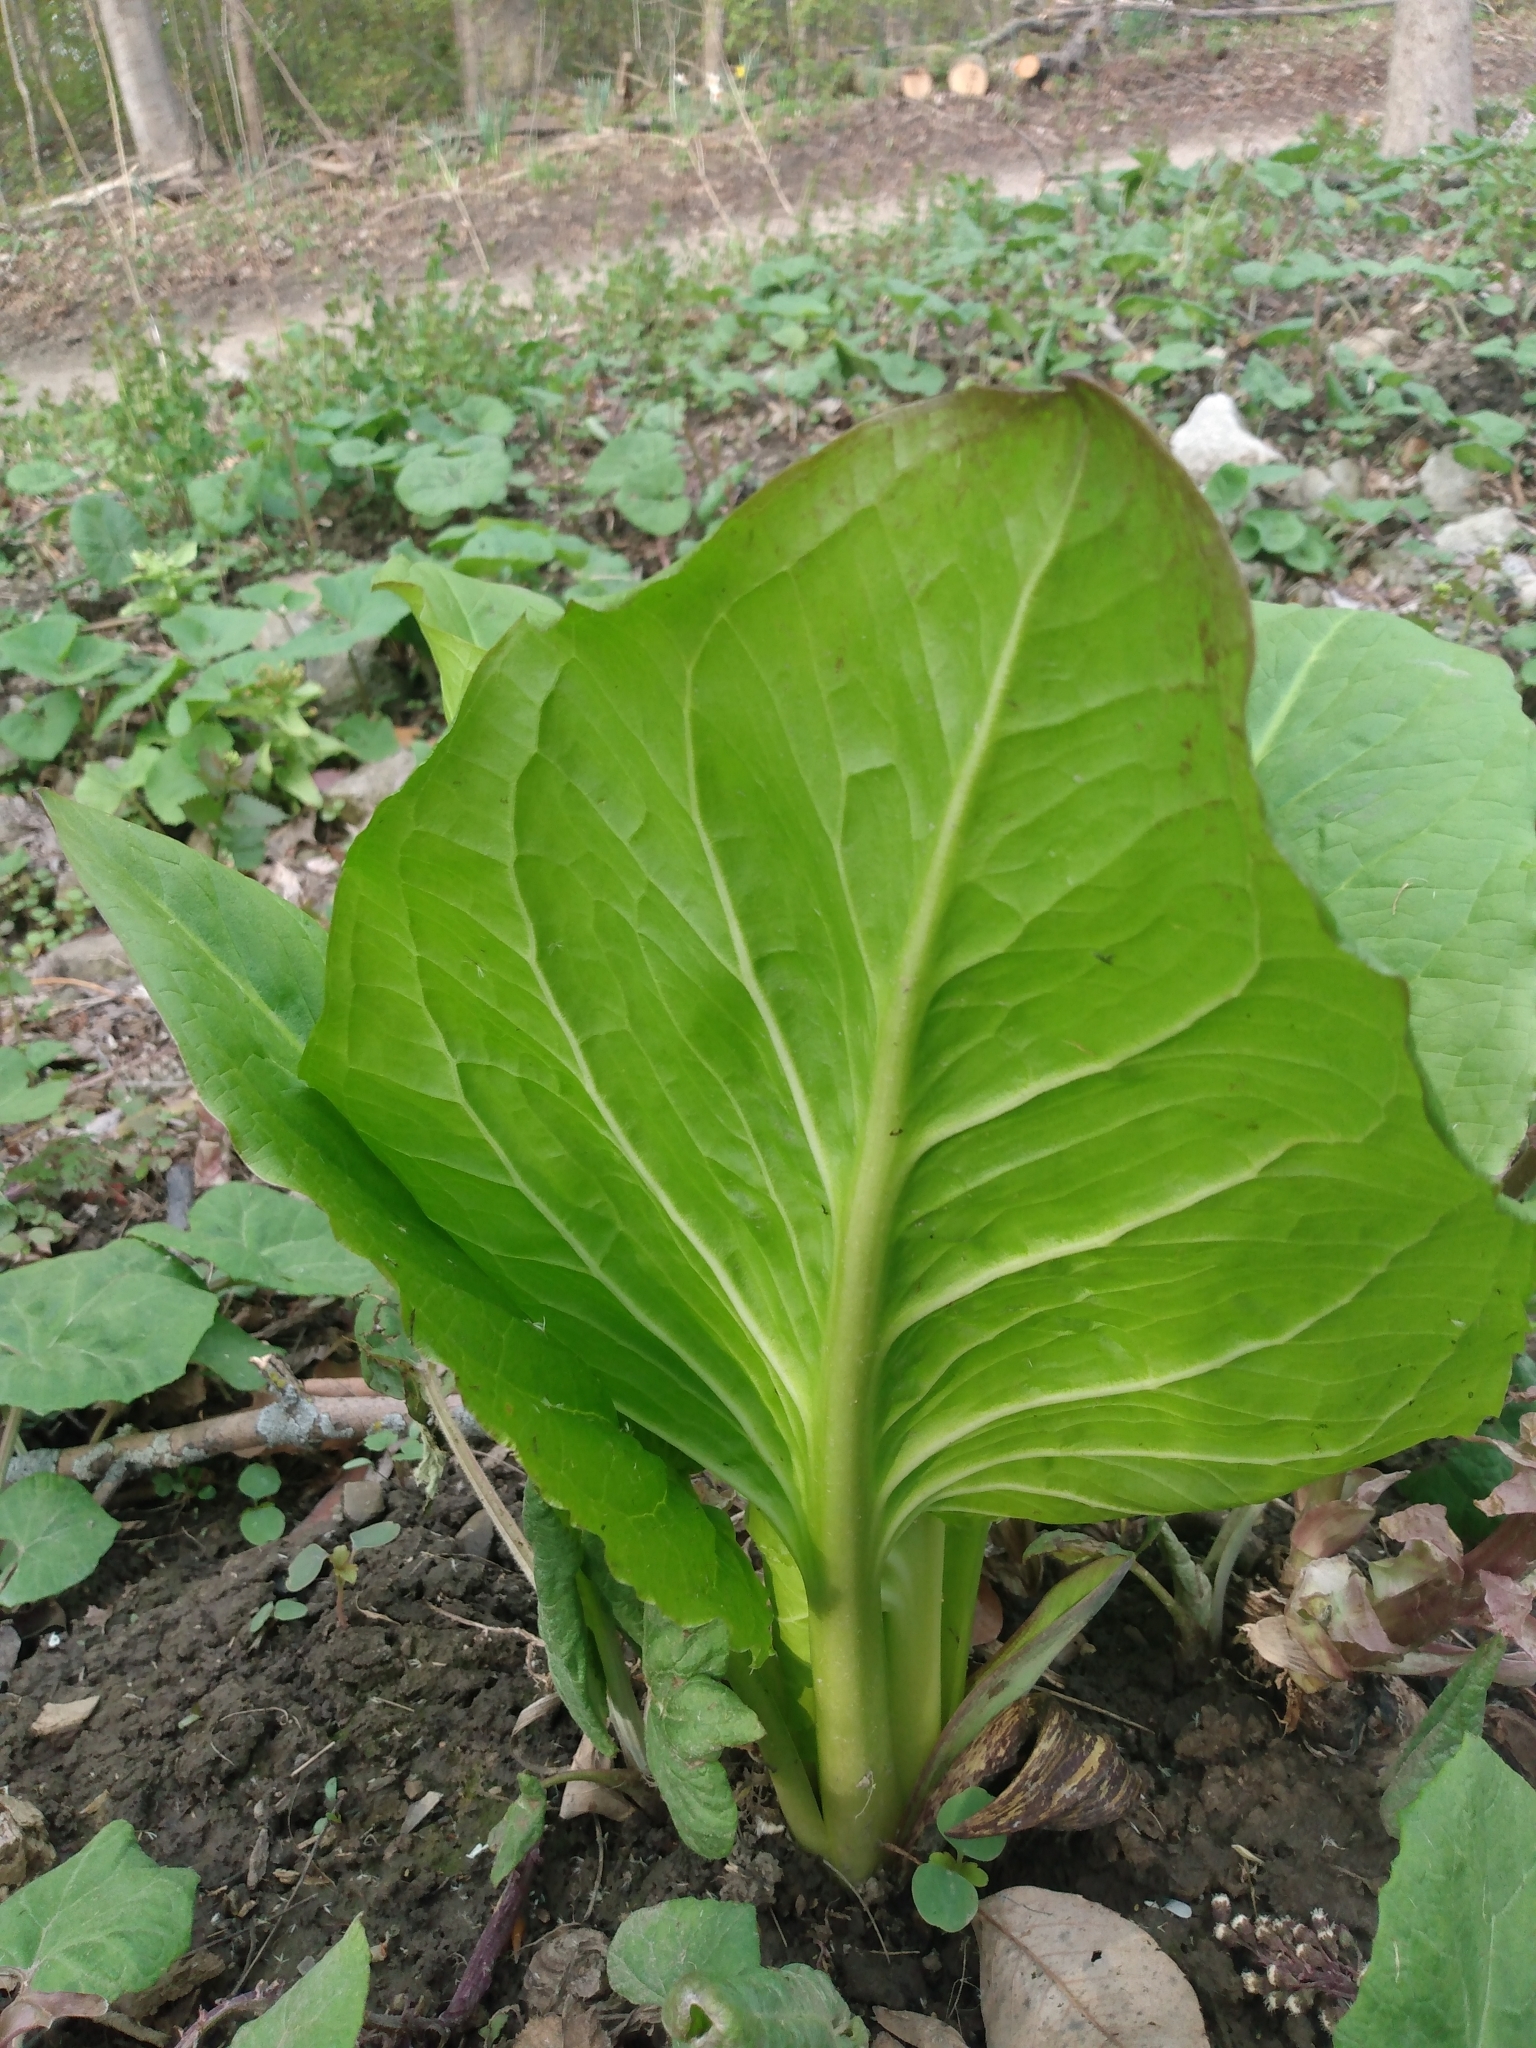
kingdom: Plantae
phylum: Tracheophyta
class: Liliopsida
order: Alismatales
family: Araceae
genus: Symplocarpus
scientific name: Symplocarpus foetidus
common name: Eastern skunk cabbage
